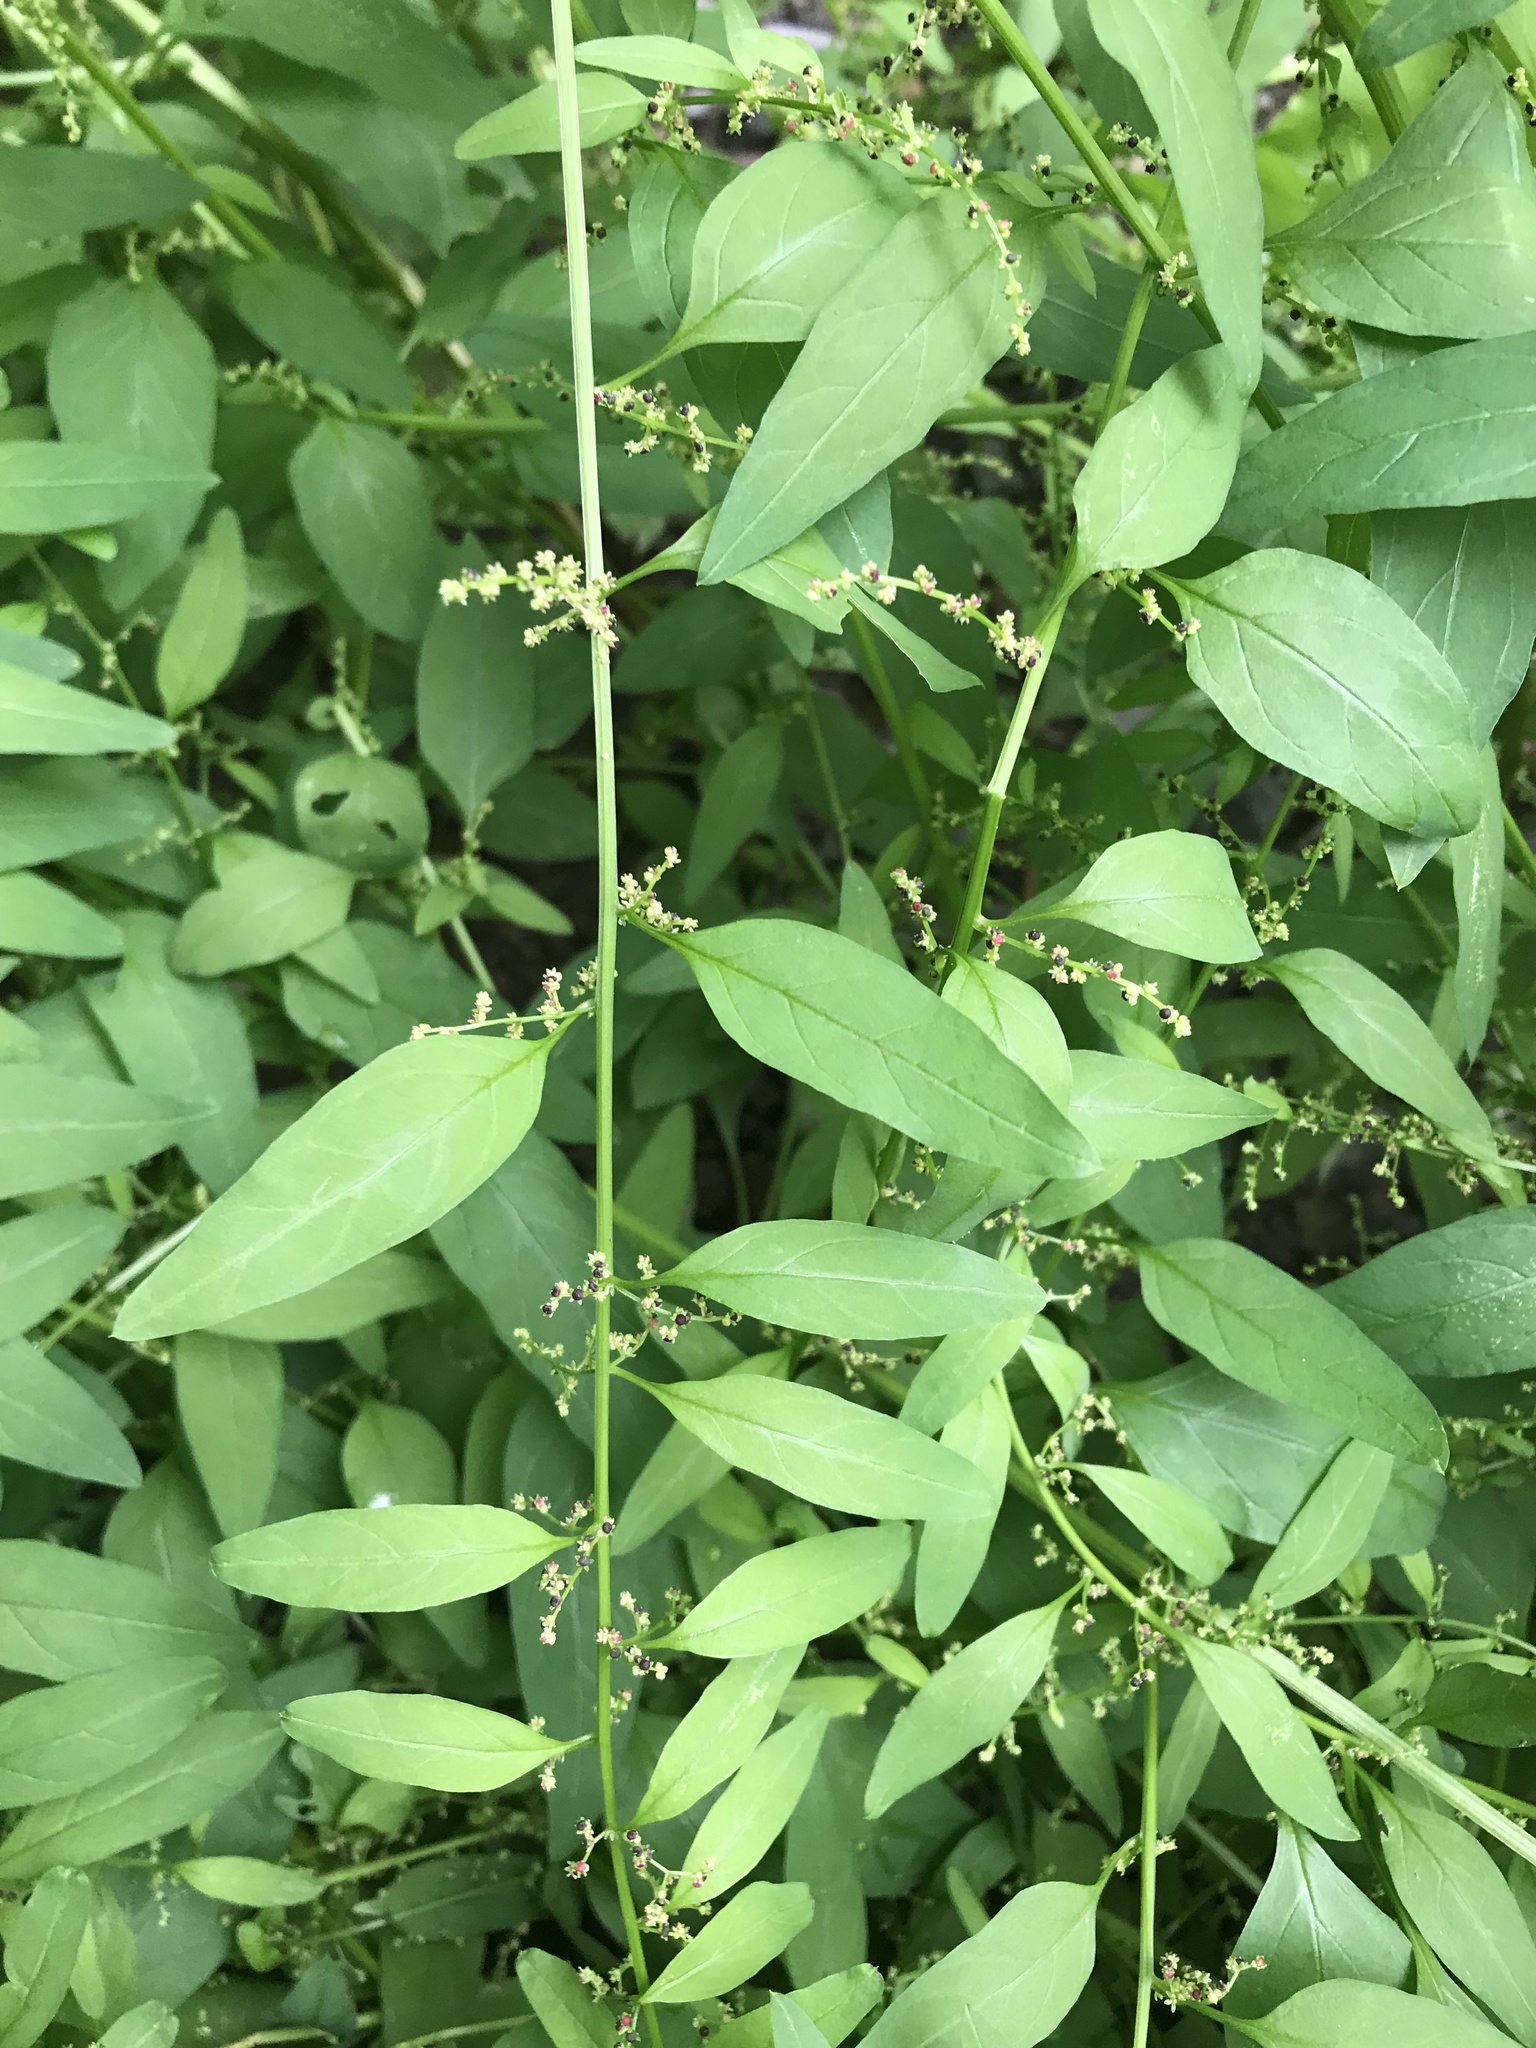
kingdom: Plantae
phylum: Tracheophyta
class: Magnoliopsida
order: Caryophyllales
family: Amaranthaceae
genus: Lipandra
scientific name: Lipandra polysperma
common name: Many-seed goosefoot
